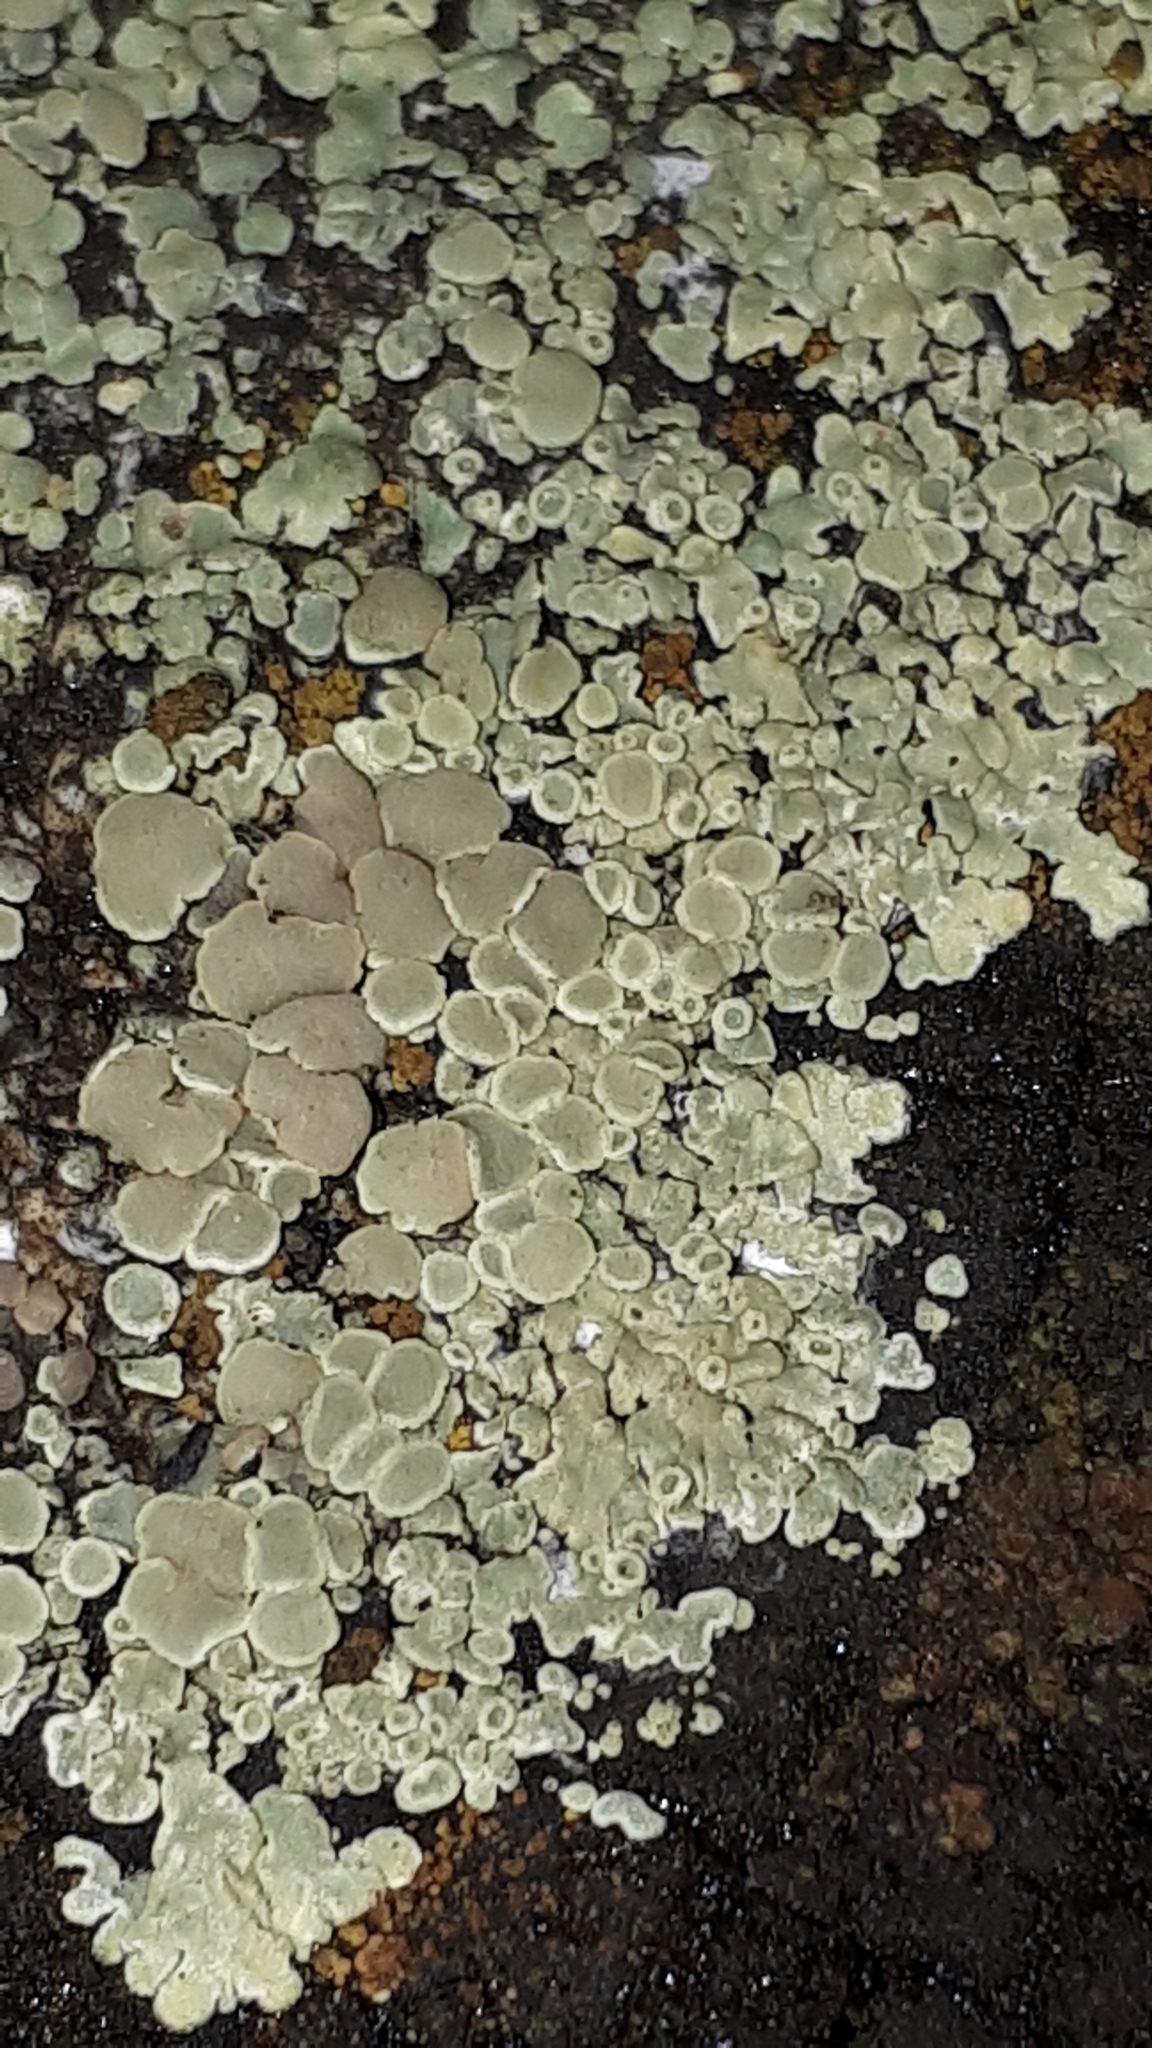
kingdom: Fungi
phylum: Ascomycota
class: Lecanoromycetes
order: Lecanorales
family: Lecanoraceae
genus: Protoparmeliopsis
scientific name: Protoparmeliopsis muralis
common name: Stonewall rim lichen
